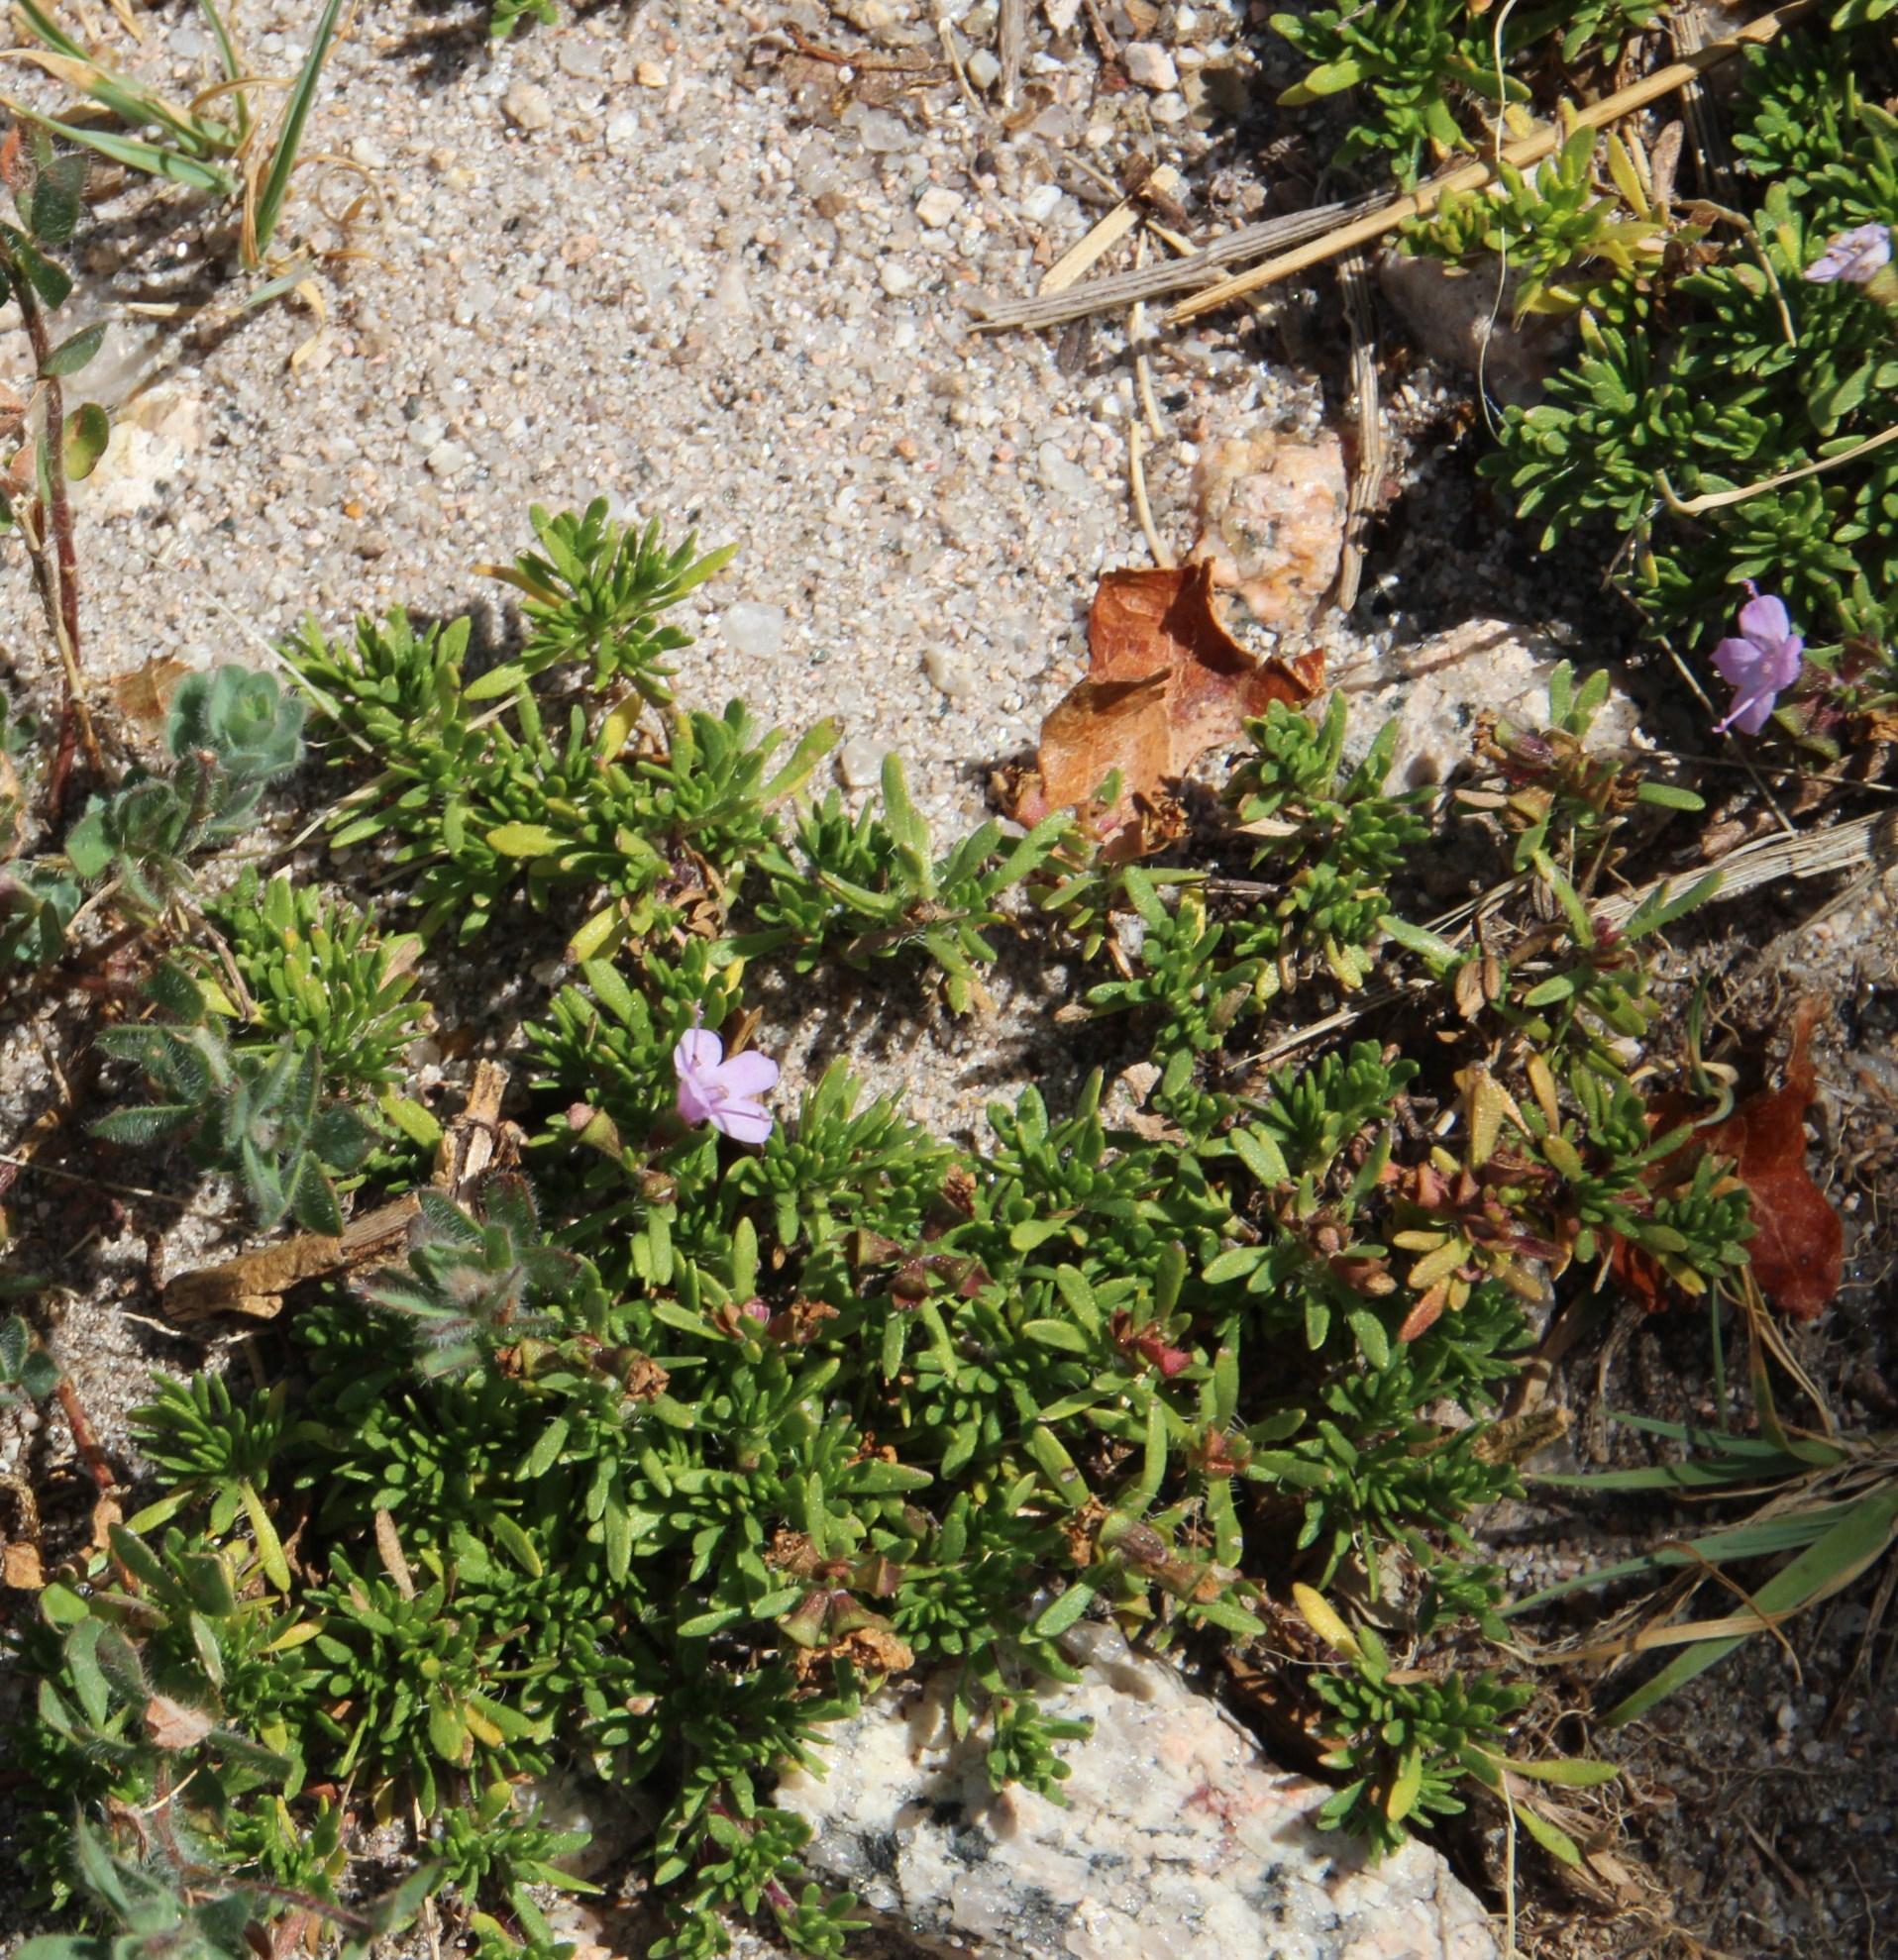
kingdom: Plantae
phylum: Tracheophyta
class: Magnoliopsida
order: Lamiales
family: Lamiaceae
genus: Thymus
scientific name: Thymus caespititius
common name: Azores thyme
